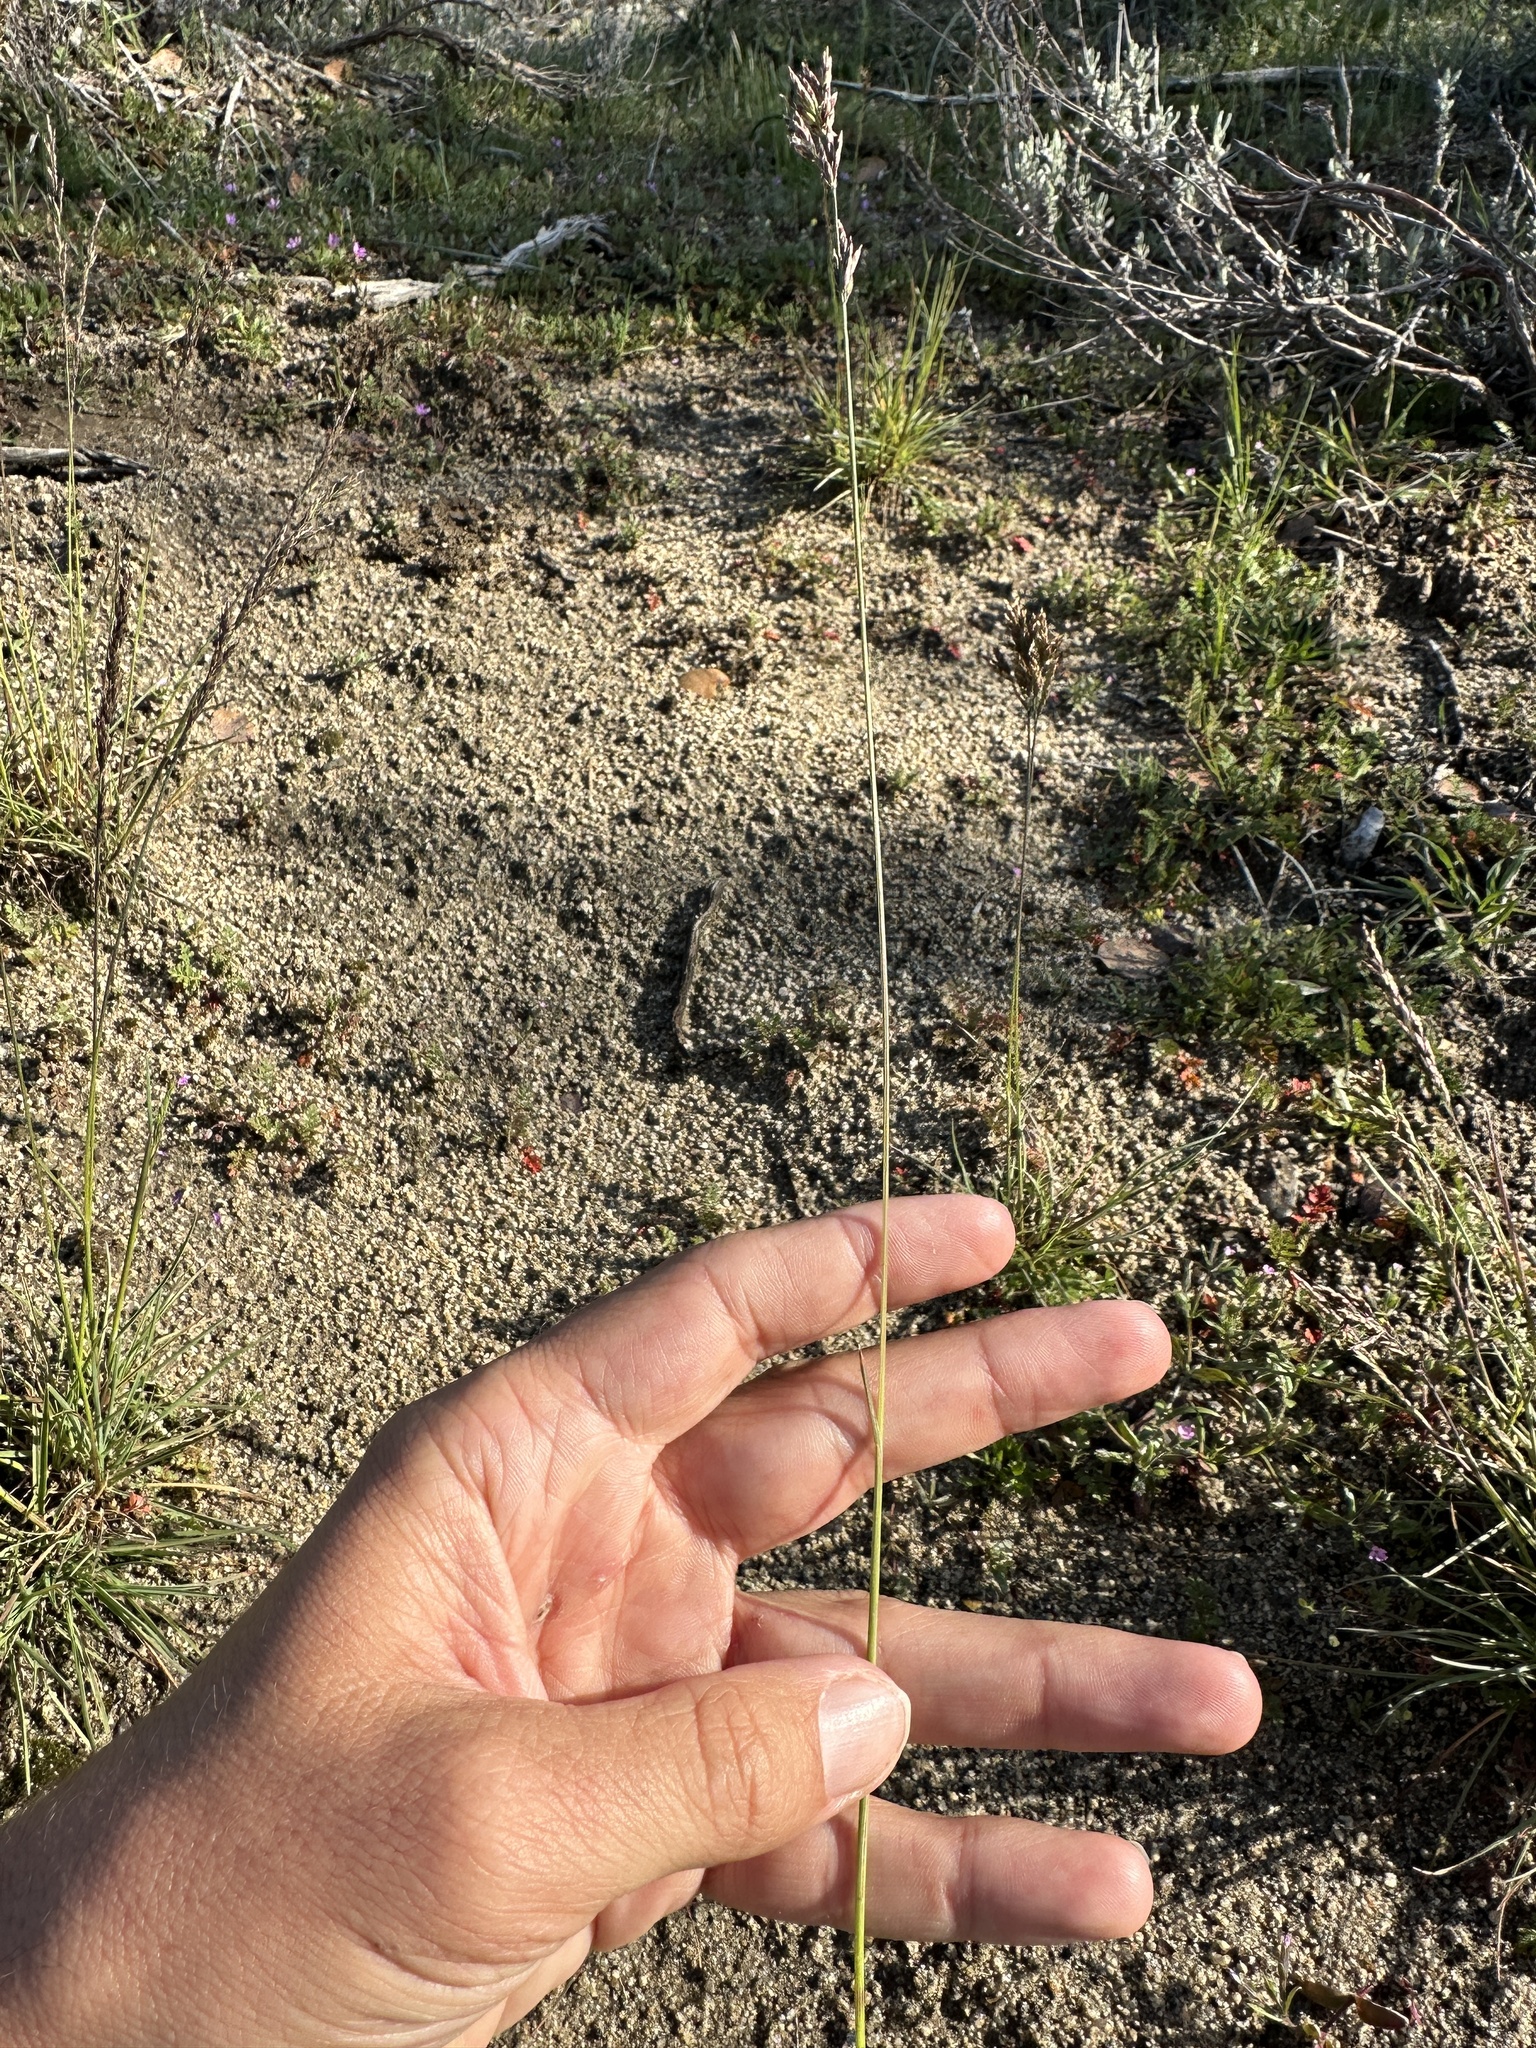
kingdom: Plantae
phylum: Tracheophyta
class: Liliopsida
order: Poales
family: Poaceae
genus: Poa
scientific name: Poa secunda
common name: Sandberg bluegrass
